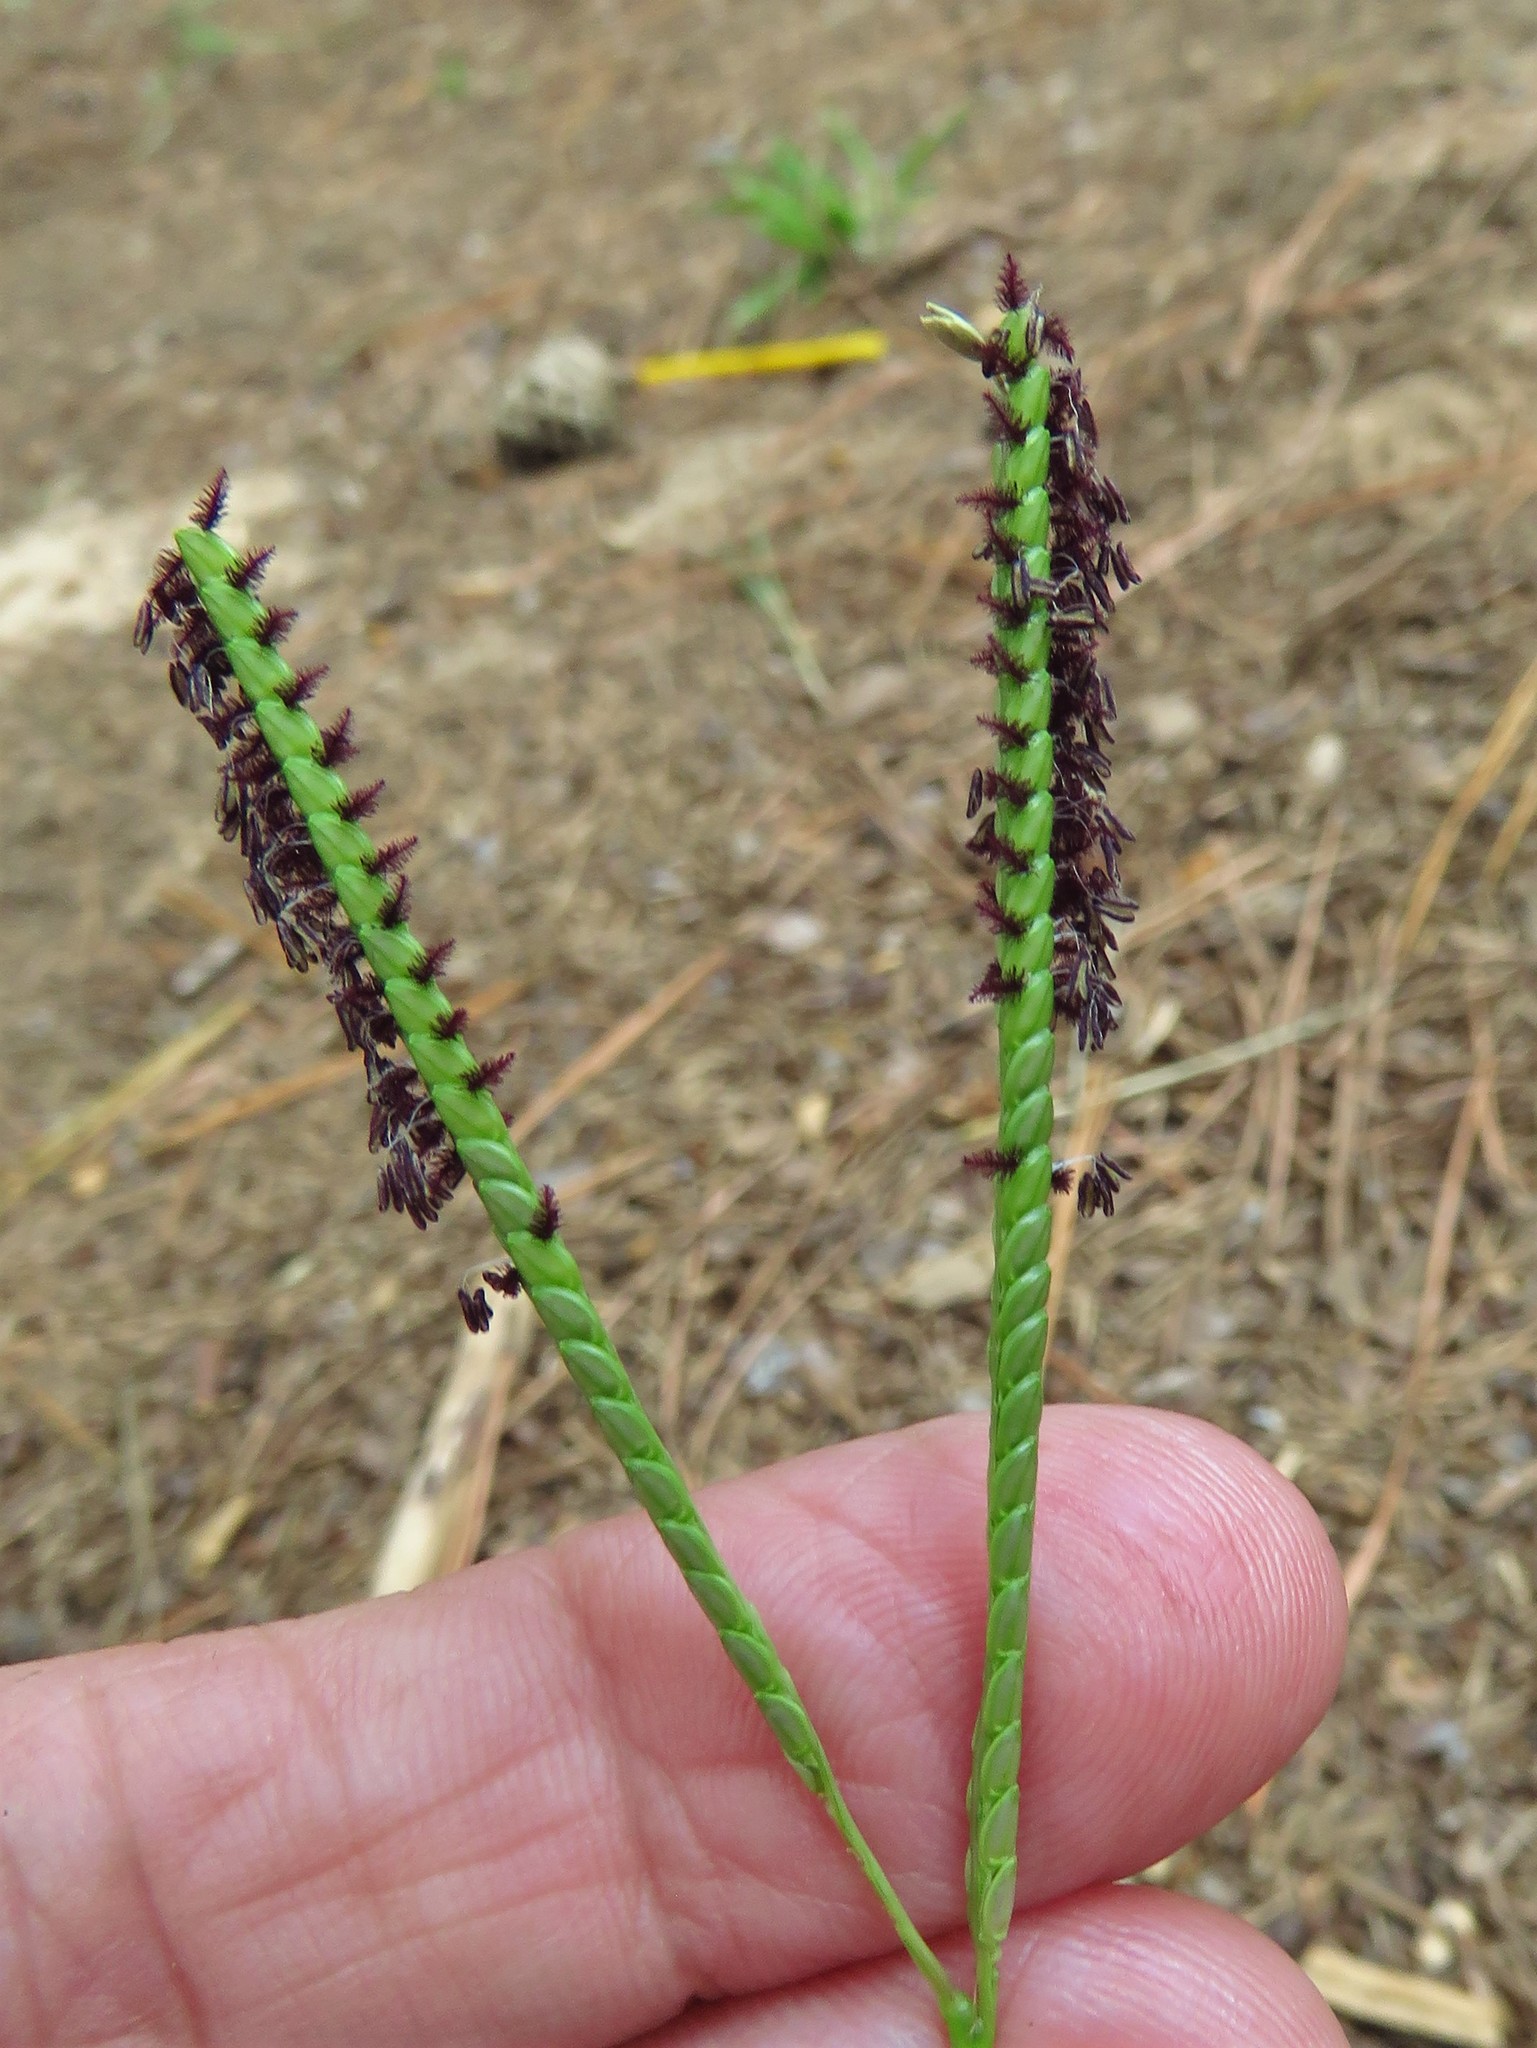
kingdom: Plantae
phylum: Tracheophyta
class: Liliopsida
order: Poales
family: Poaceae
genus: Paspalum
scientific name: Paspalum notatum
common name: Bahiagrass
